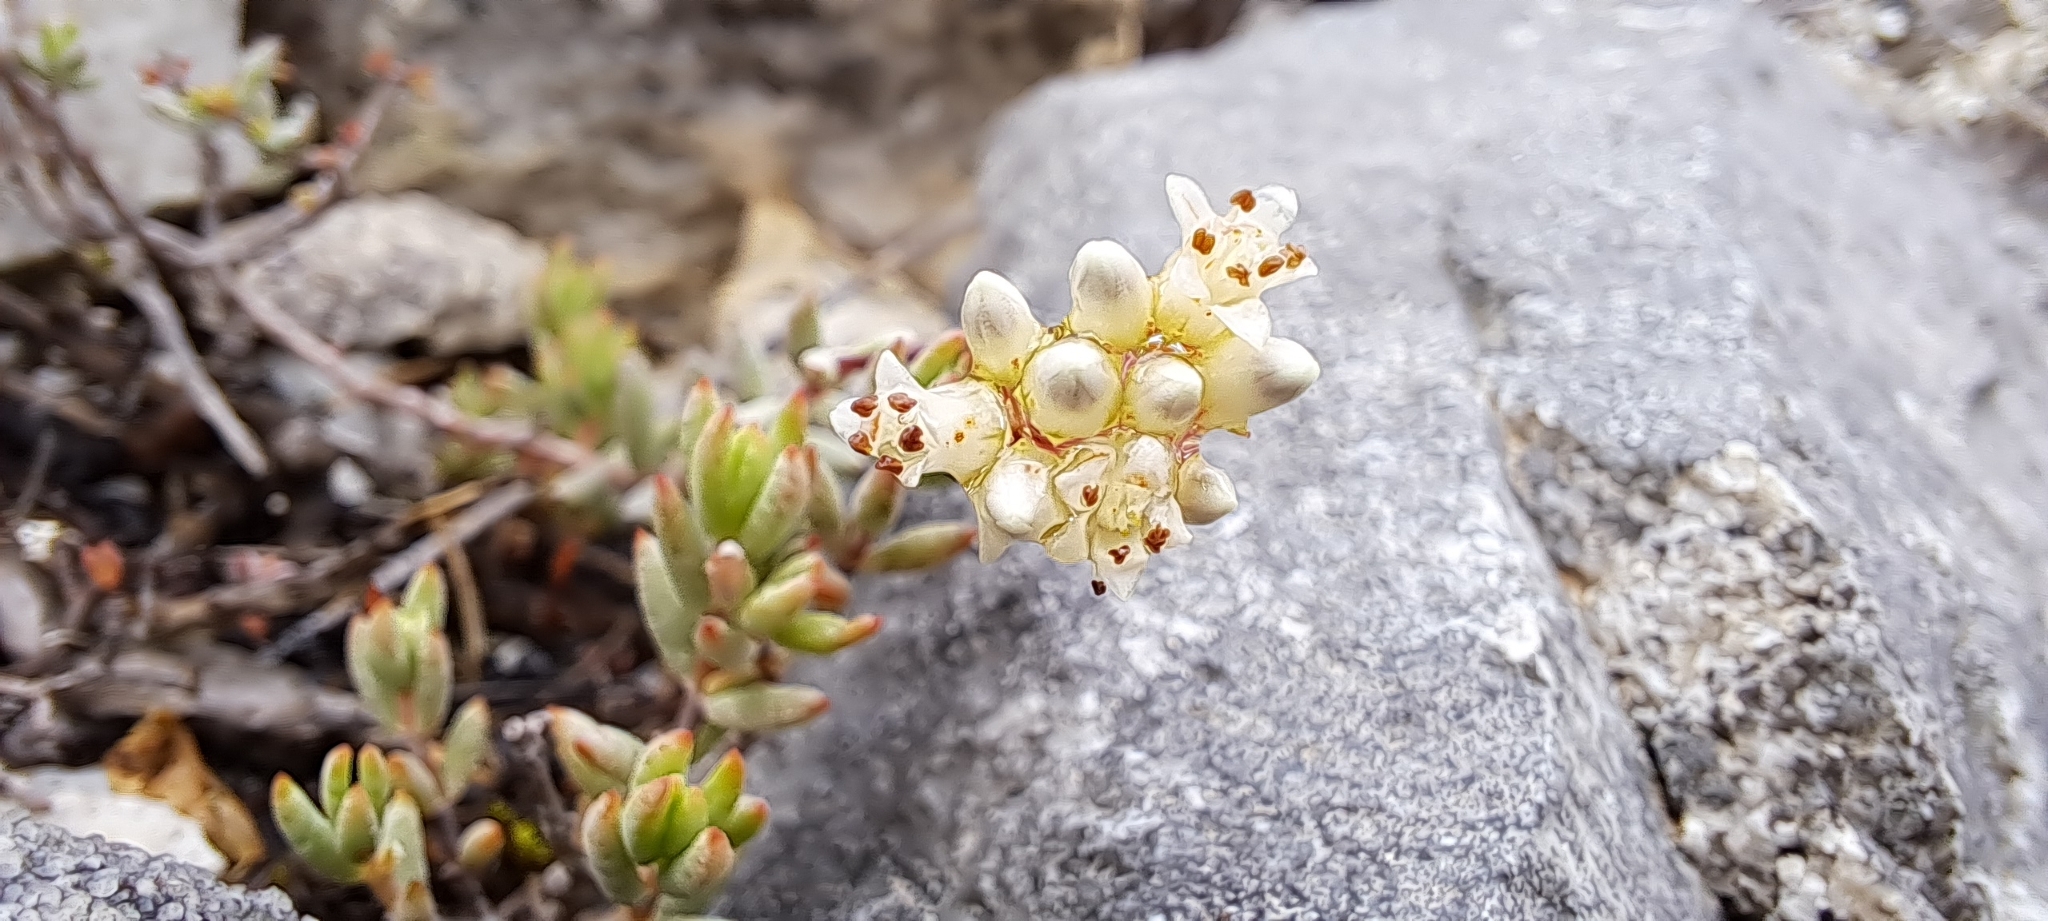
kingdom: Plantae
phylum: Tracheophyta
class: Magnoliopsida
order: Saxifragales
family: Crassulaceae
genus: Crassula
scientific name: Crassula biplanata
